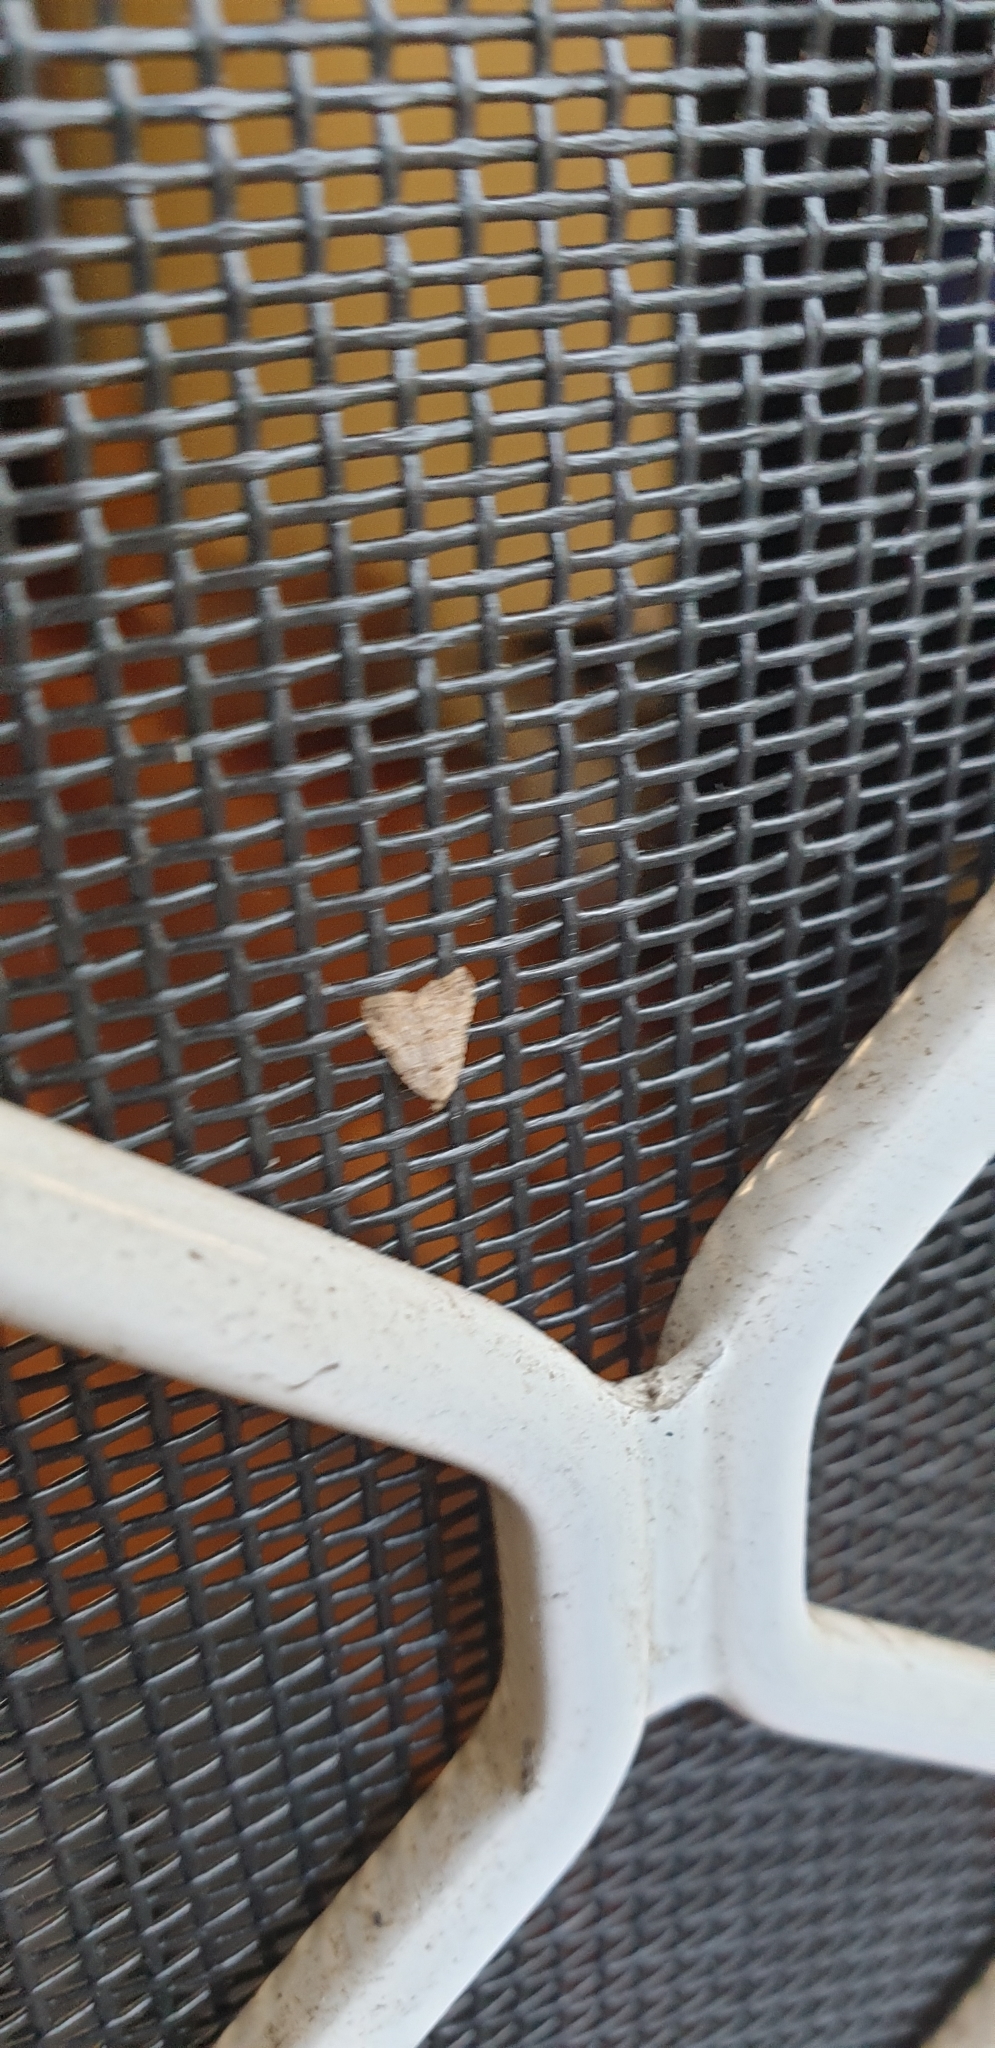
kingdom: Animalia
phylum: Arthropoda
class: Insecta
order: Lepidoptera
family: Erebidae
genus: Magna
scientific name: Magna myops
